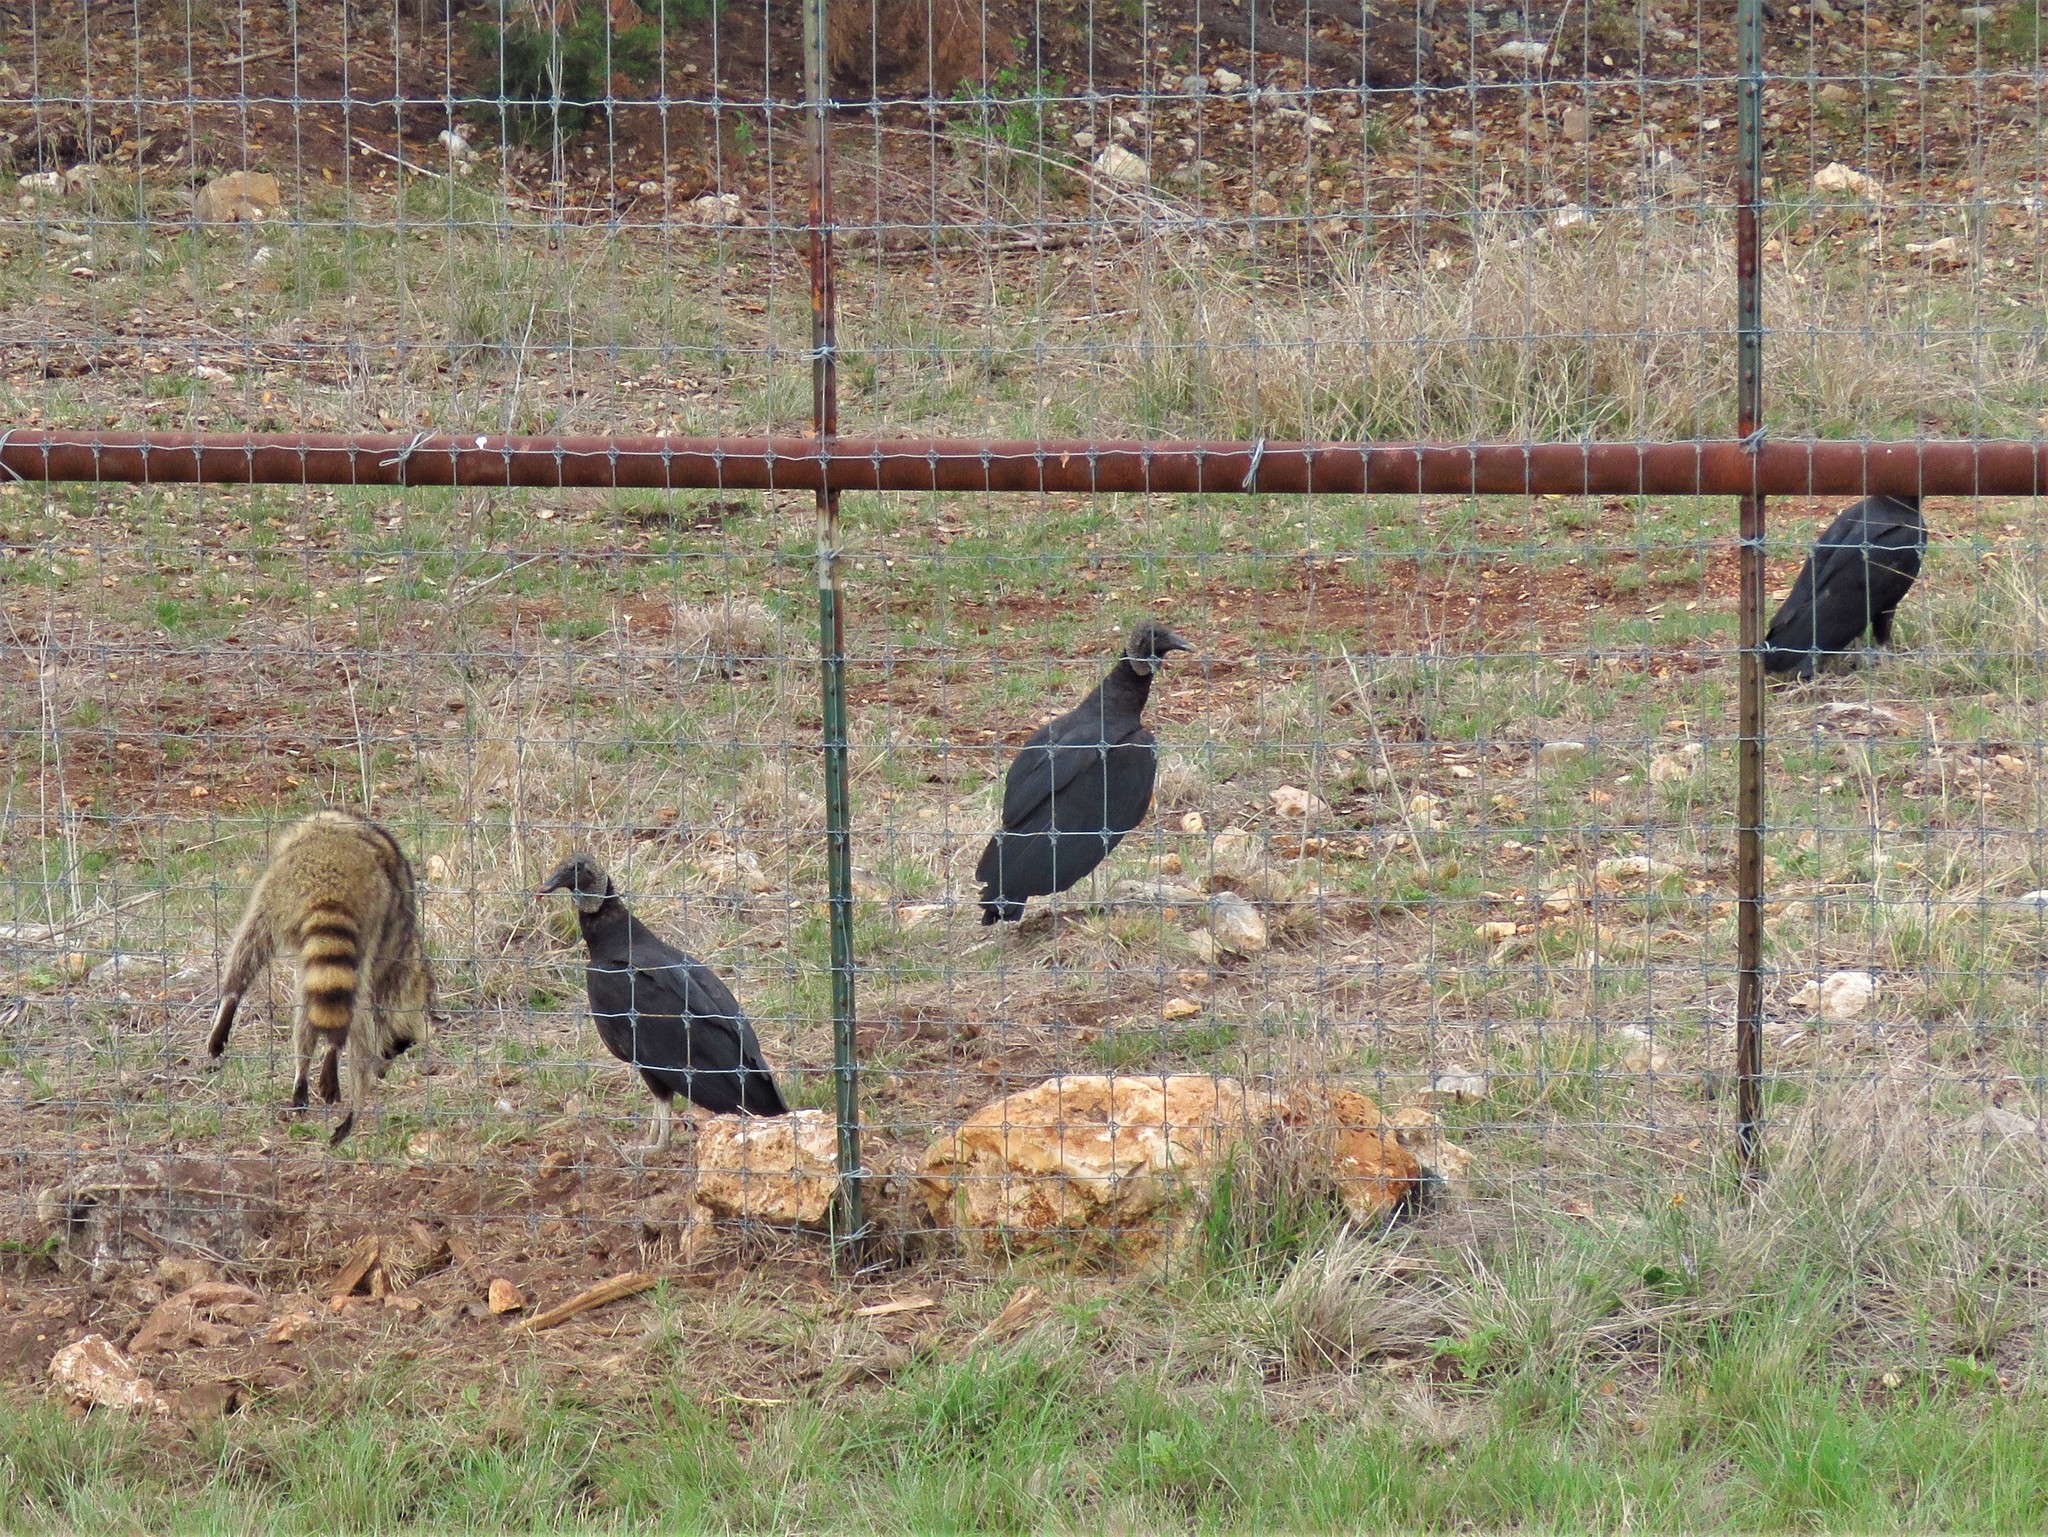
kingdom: Animalia
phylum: Chordata
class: Mammalia
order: Carnivora
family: Procyonidae
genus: Procyon
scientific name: Procyon lotor
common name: Raccoon
